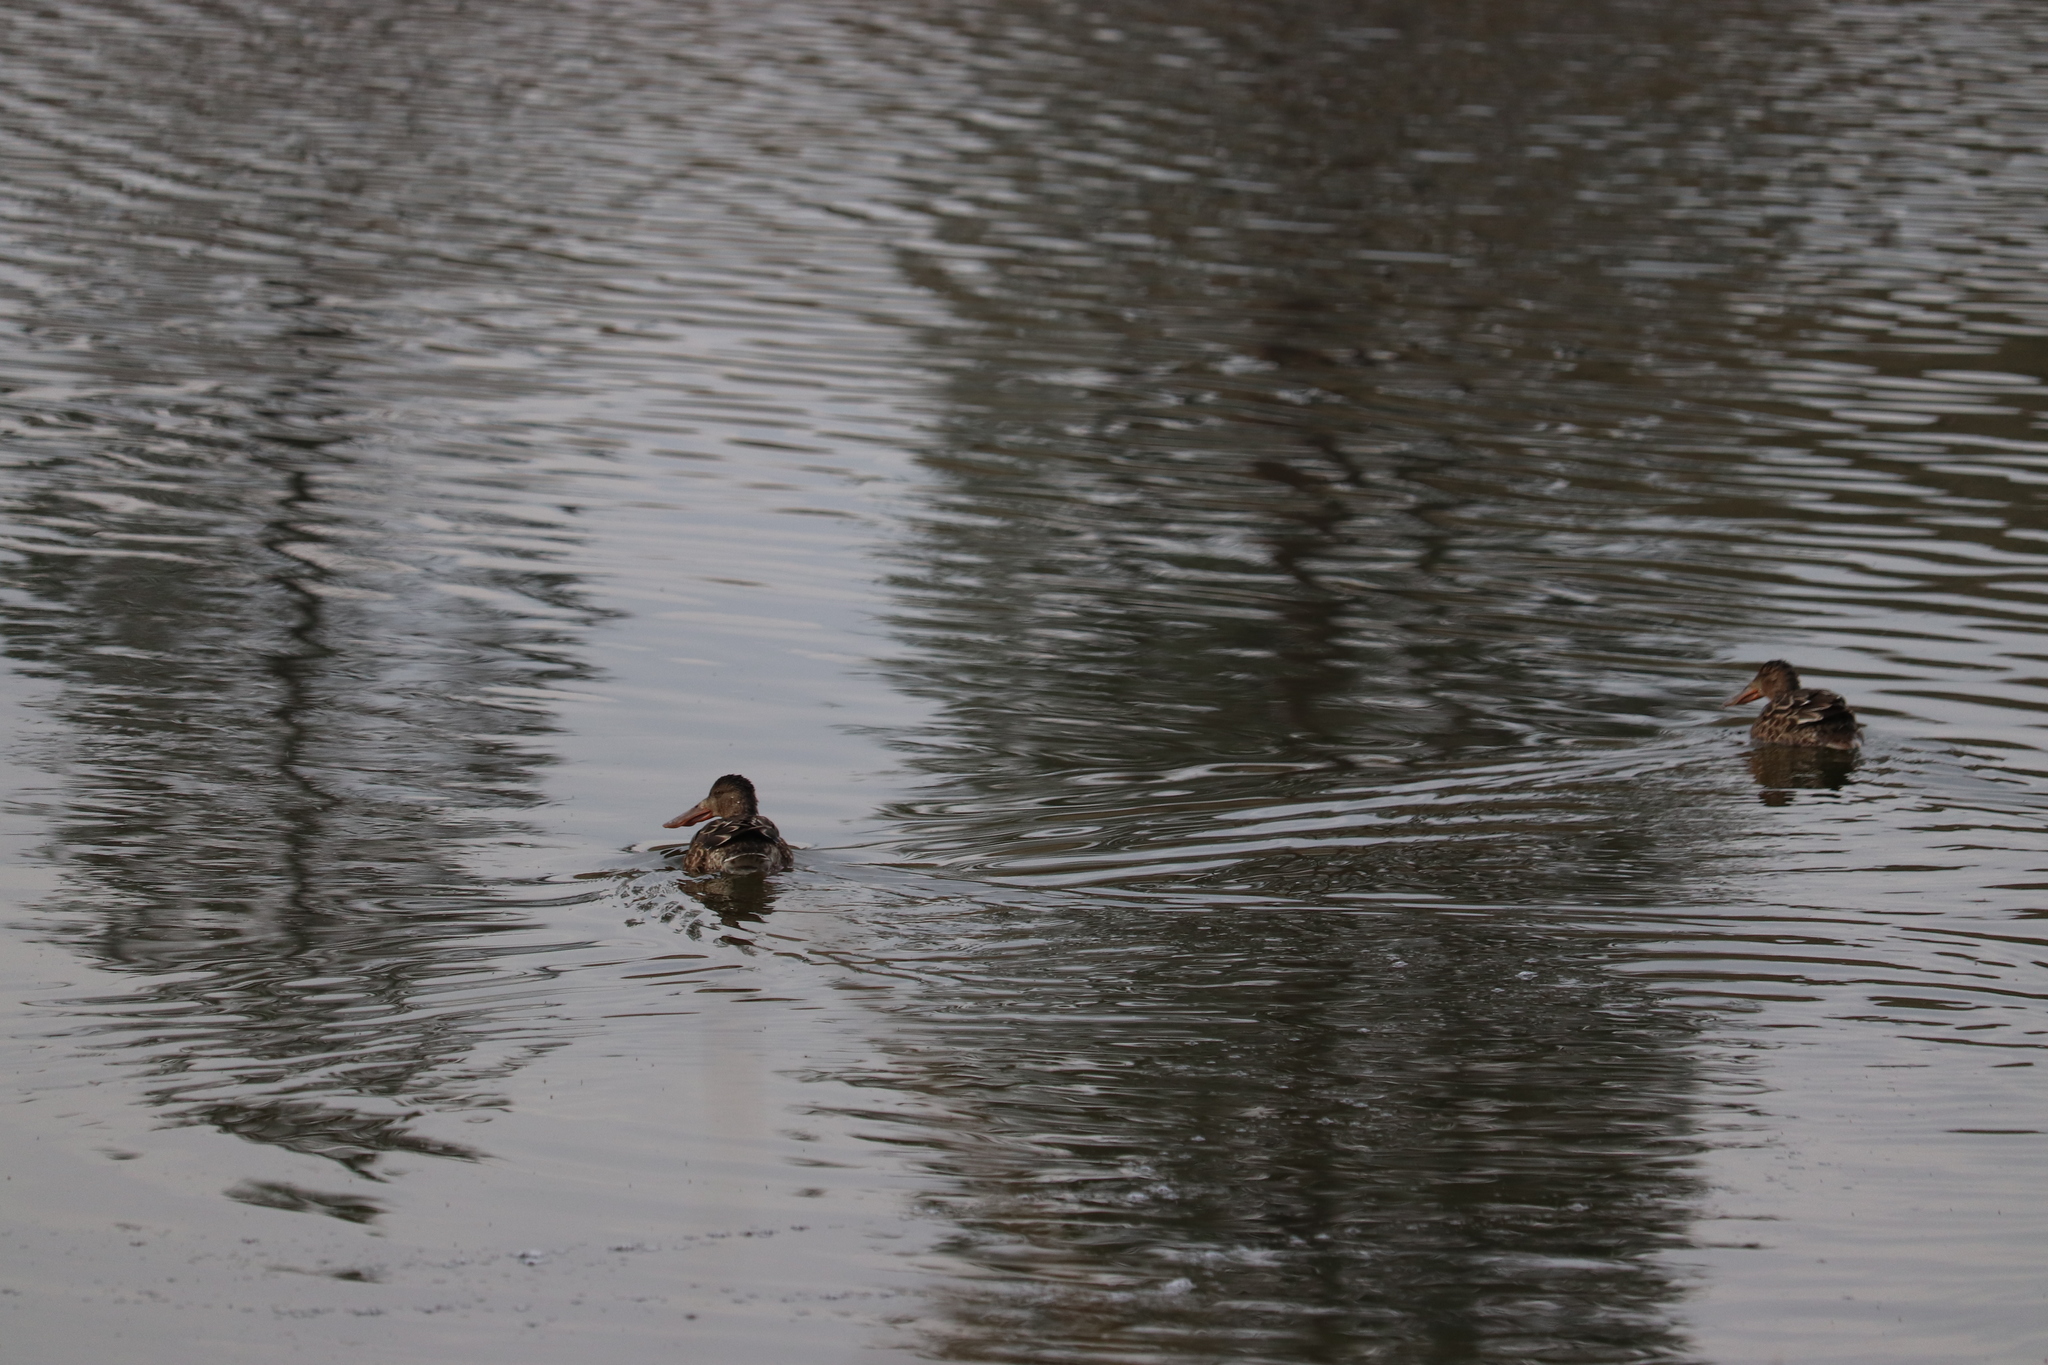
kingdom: Animalia
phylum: Chordata
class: Aves
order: Anseriformes
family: Anatidae
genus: Spatula
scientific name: Spatula clypeata
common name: Northern shoveler
